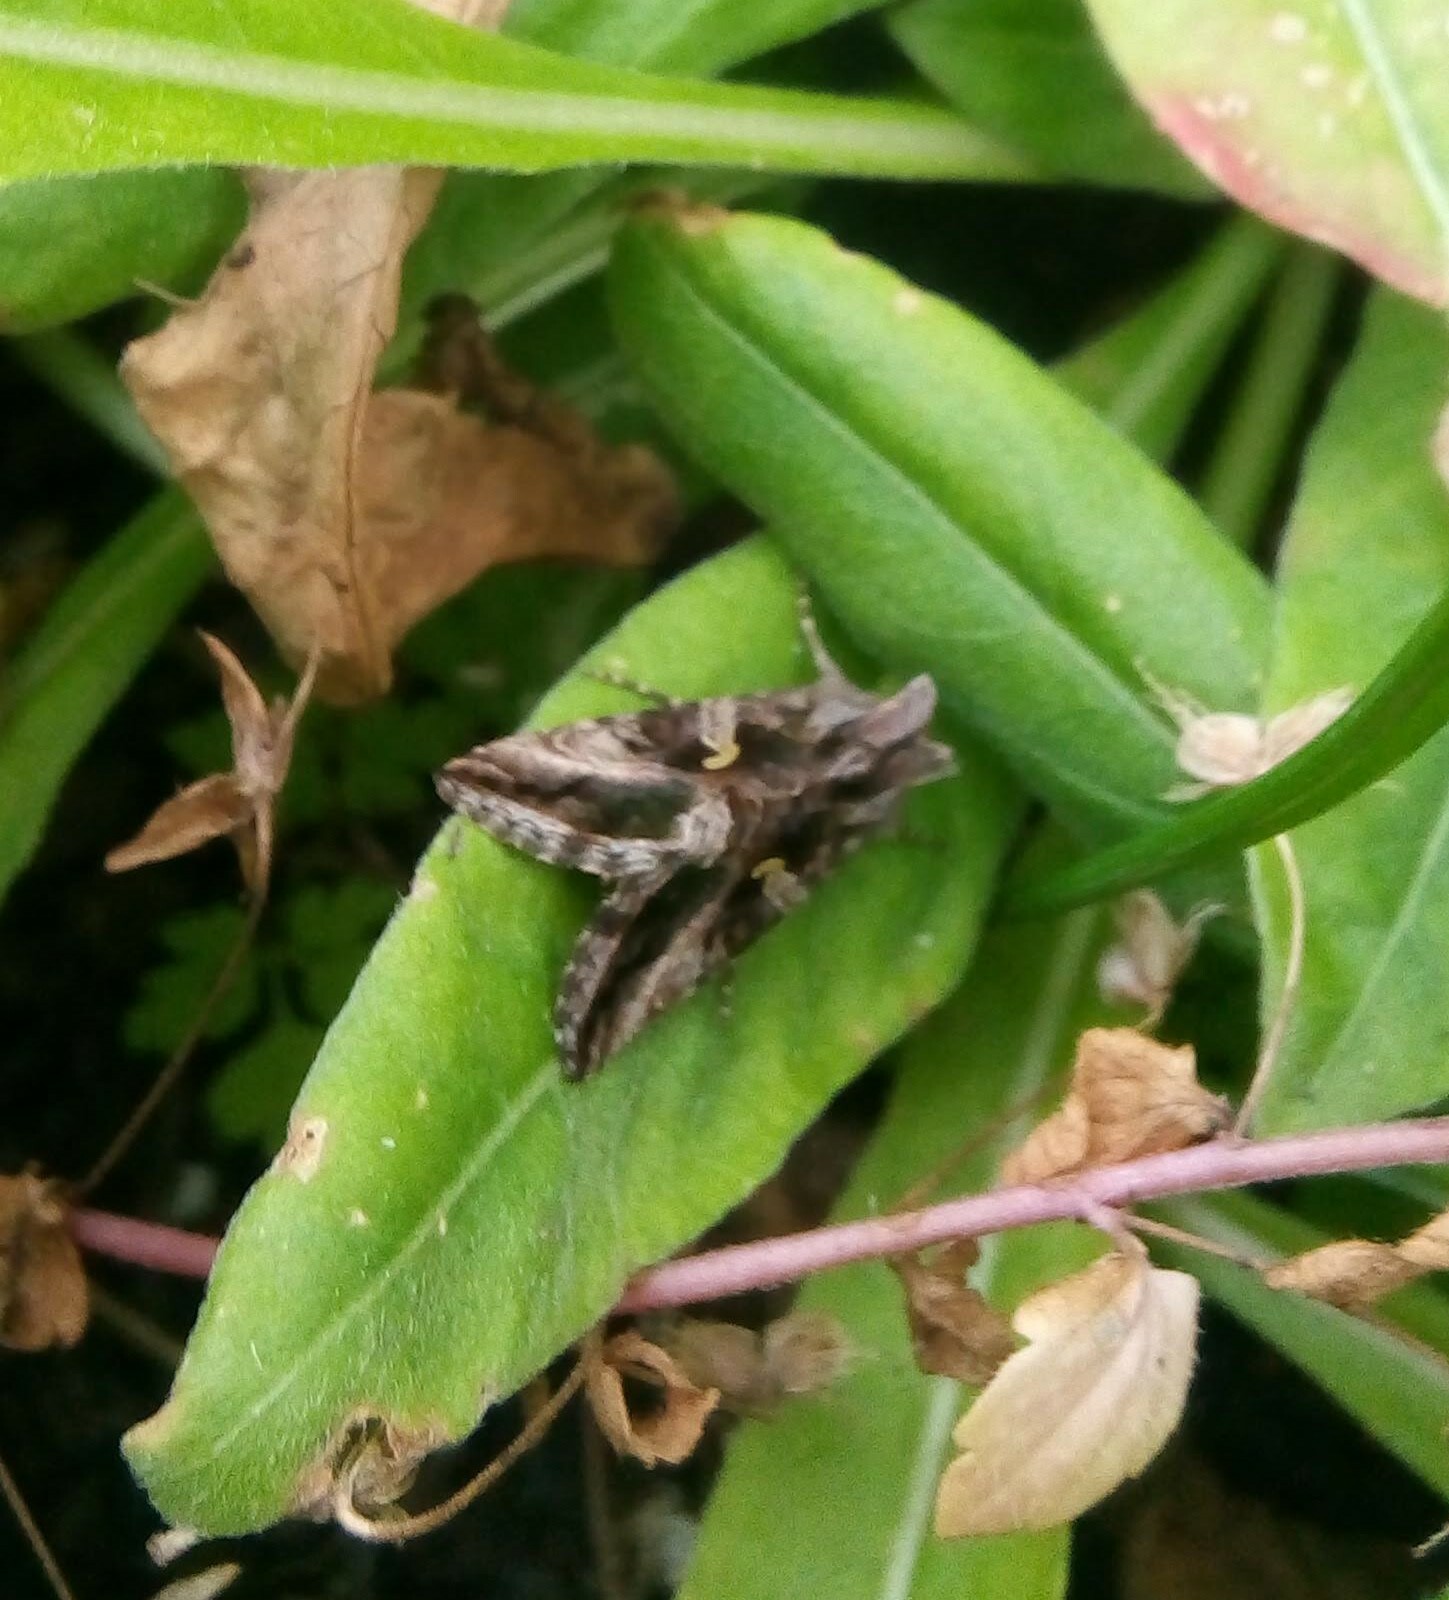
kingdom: Animalia
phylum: Arthropoda
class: Insecta
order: Lepidoptera
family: Noctuidae
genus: Autographa
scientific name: Autographa gamma
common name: Silver y
